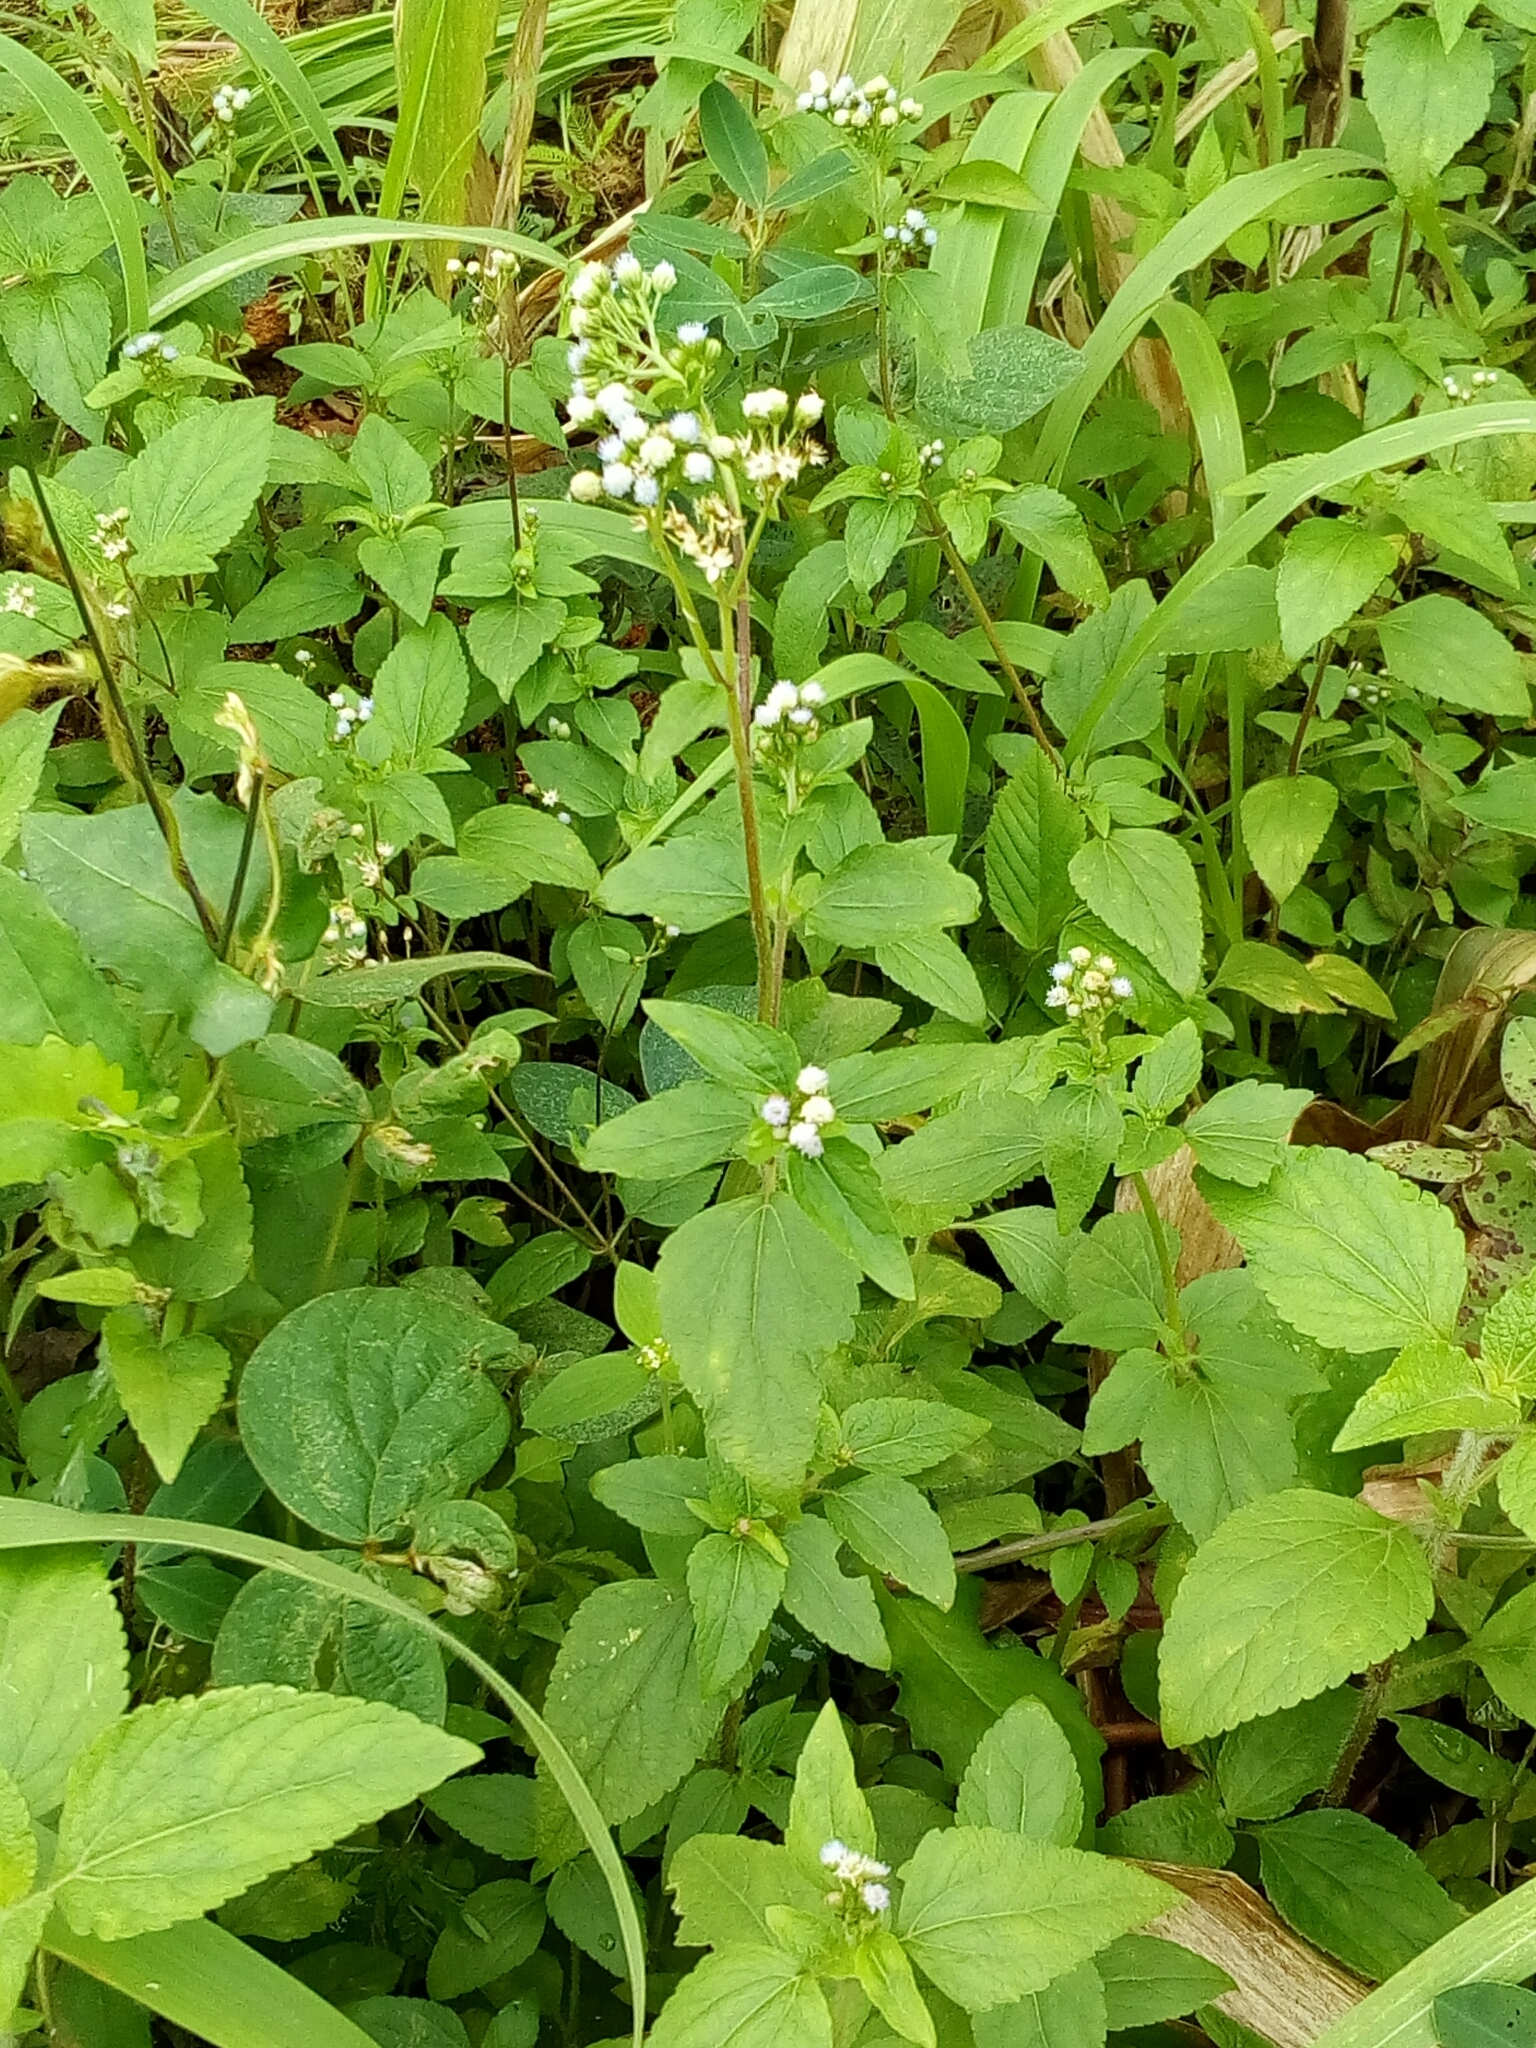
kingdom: Plantae
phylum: Tracheophyta
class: Magnoliopsida
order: Asterales
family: Asteraceae
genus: Ageratum
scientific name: Ageratum conyzoides
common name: Tropical whiteweed
